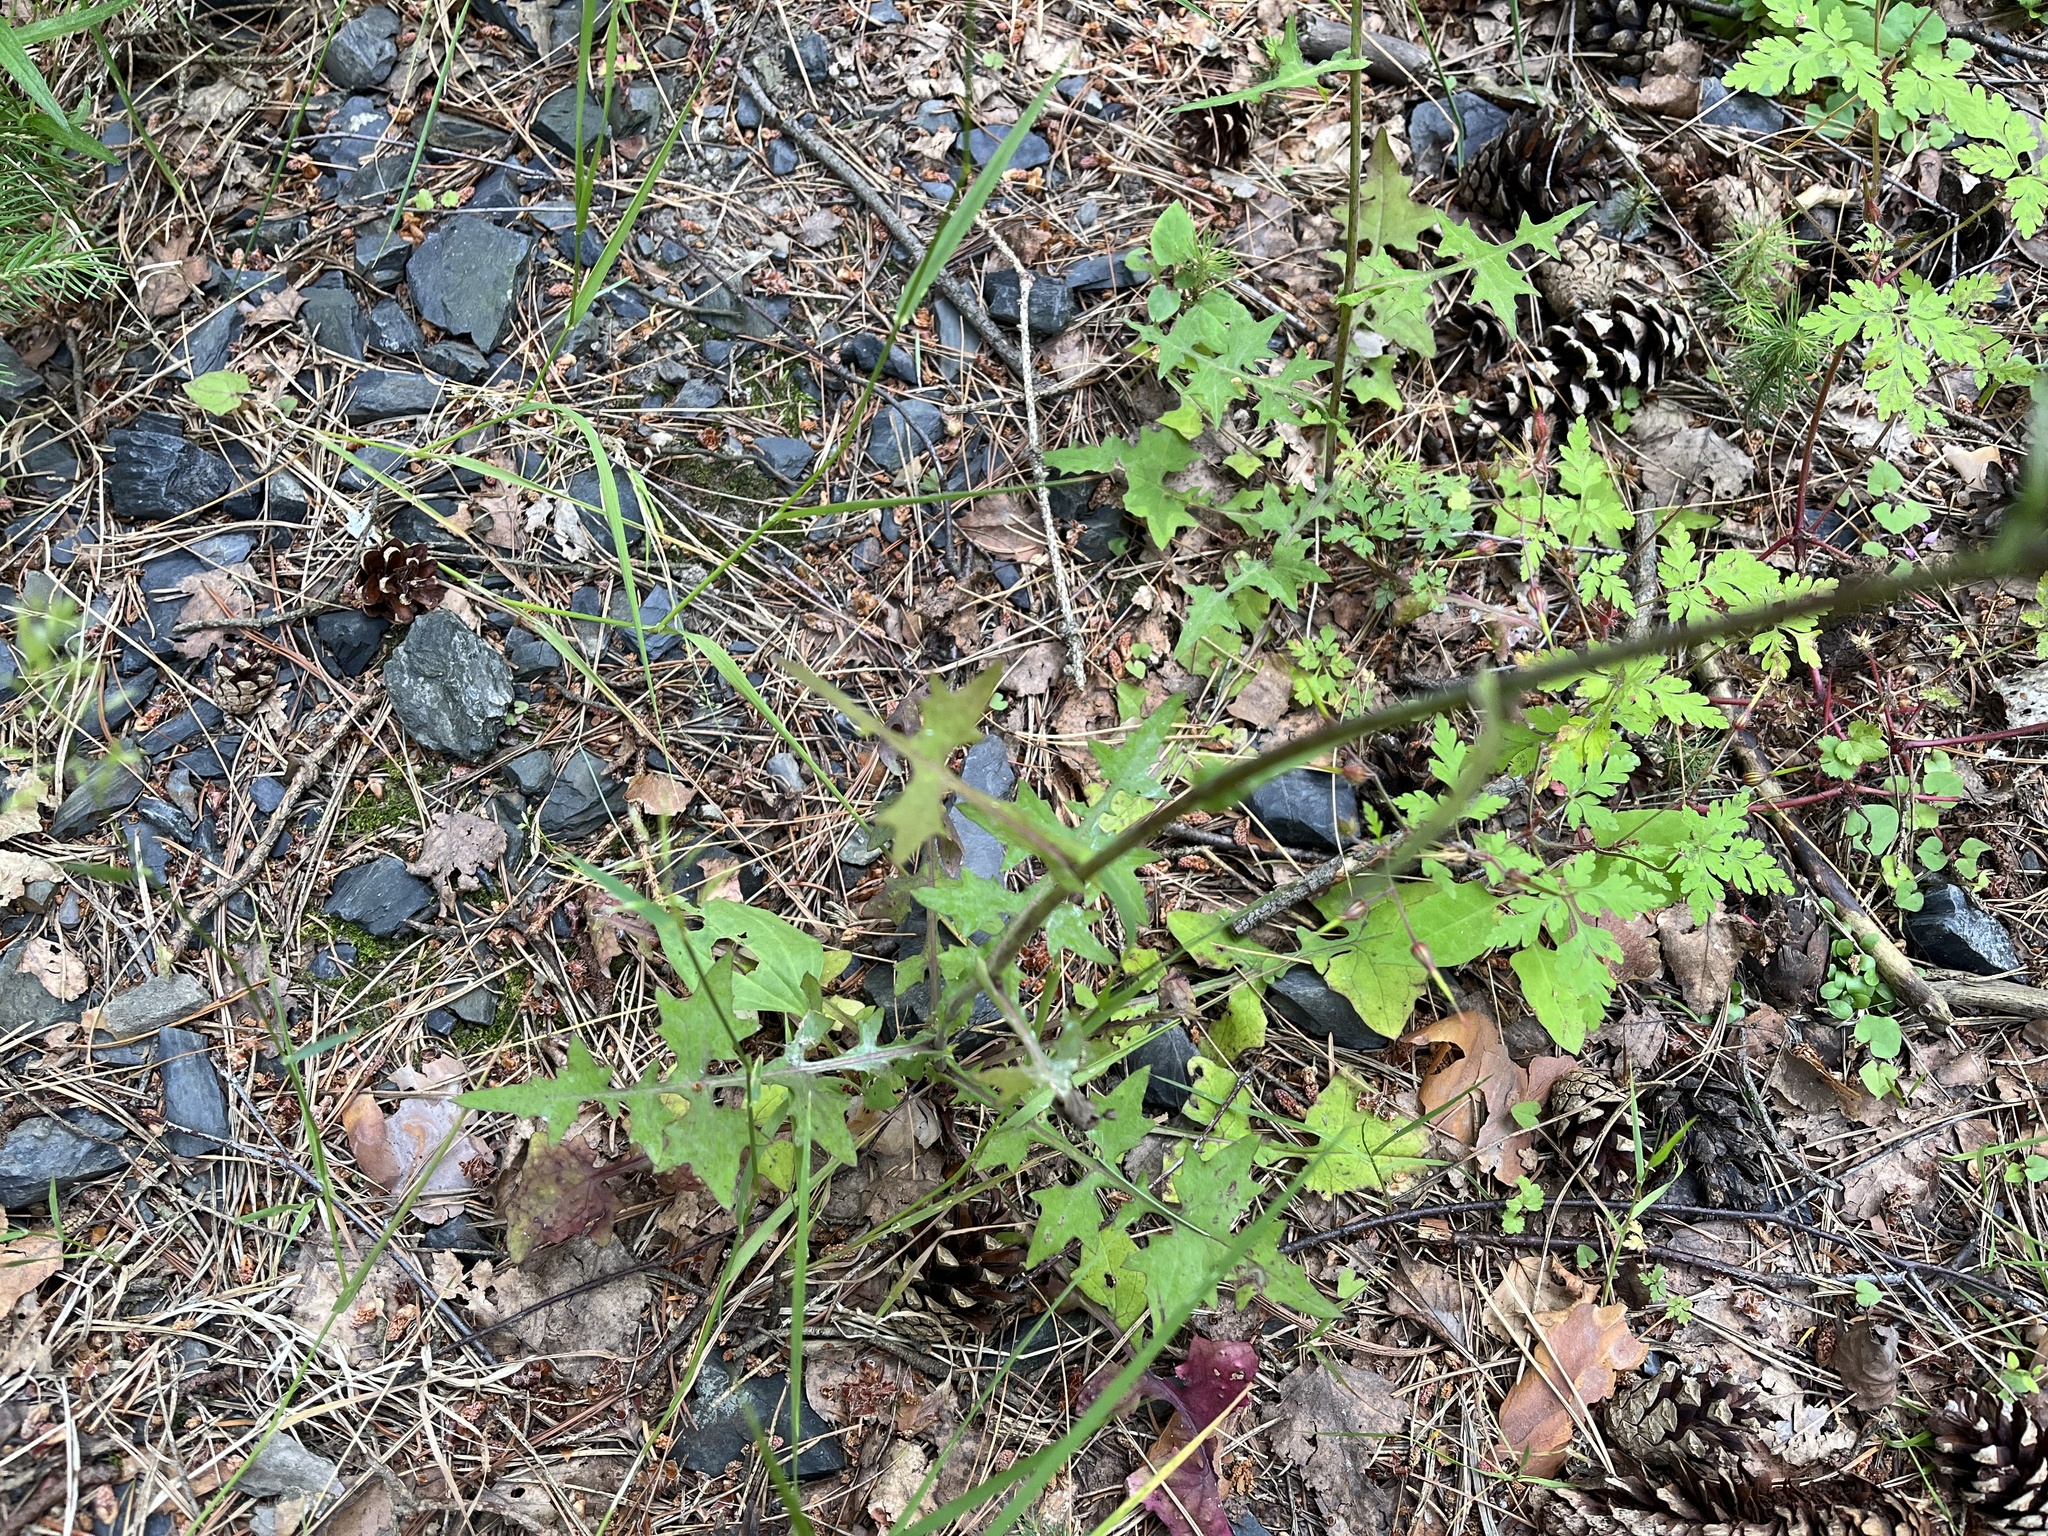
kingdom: Plantae
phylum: Tracheophyta
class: Magnoliopsida
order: Asterales
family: Asteraceae
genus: Mycelis
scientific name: Mycelis muralis
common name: Wall lettuce
